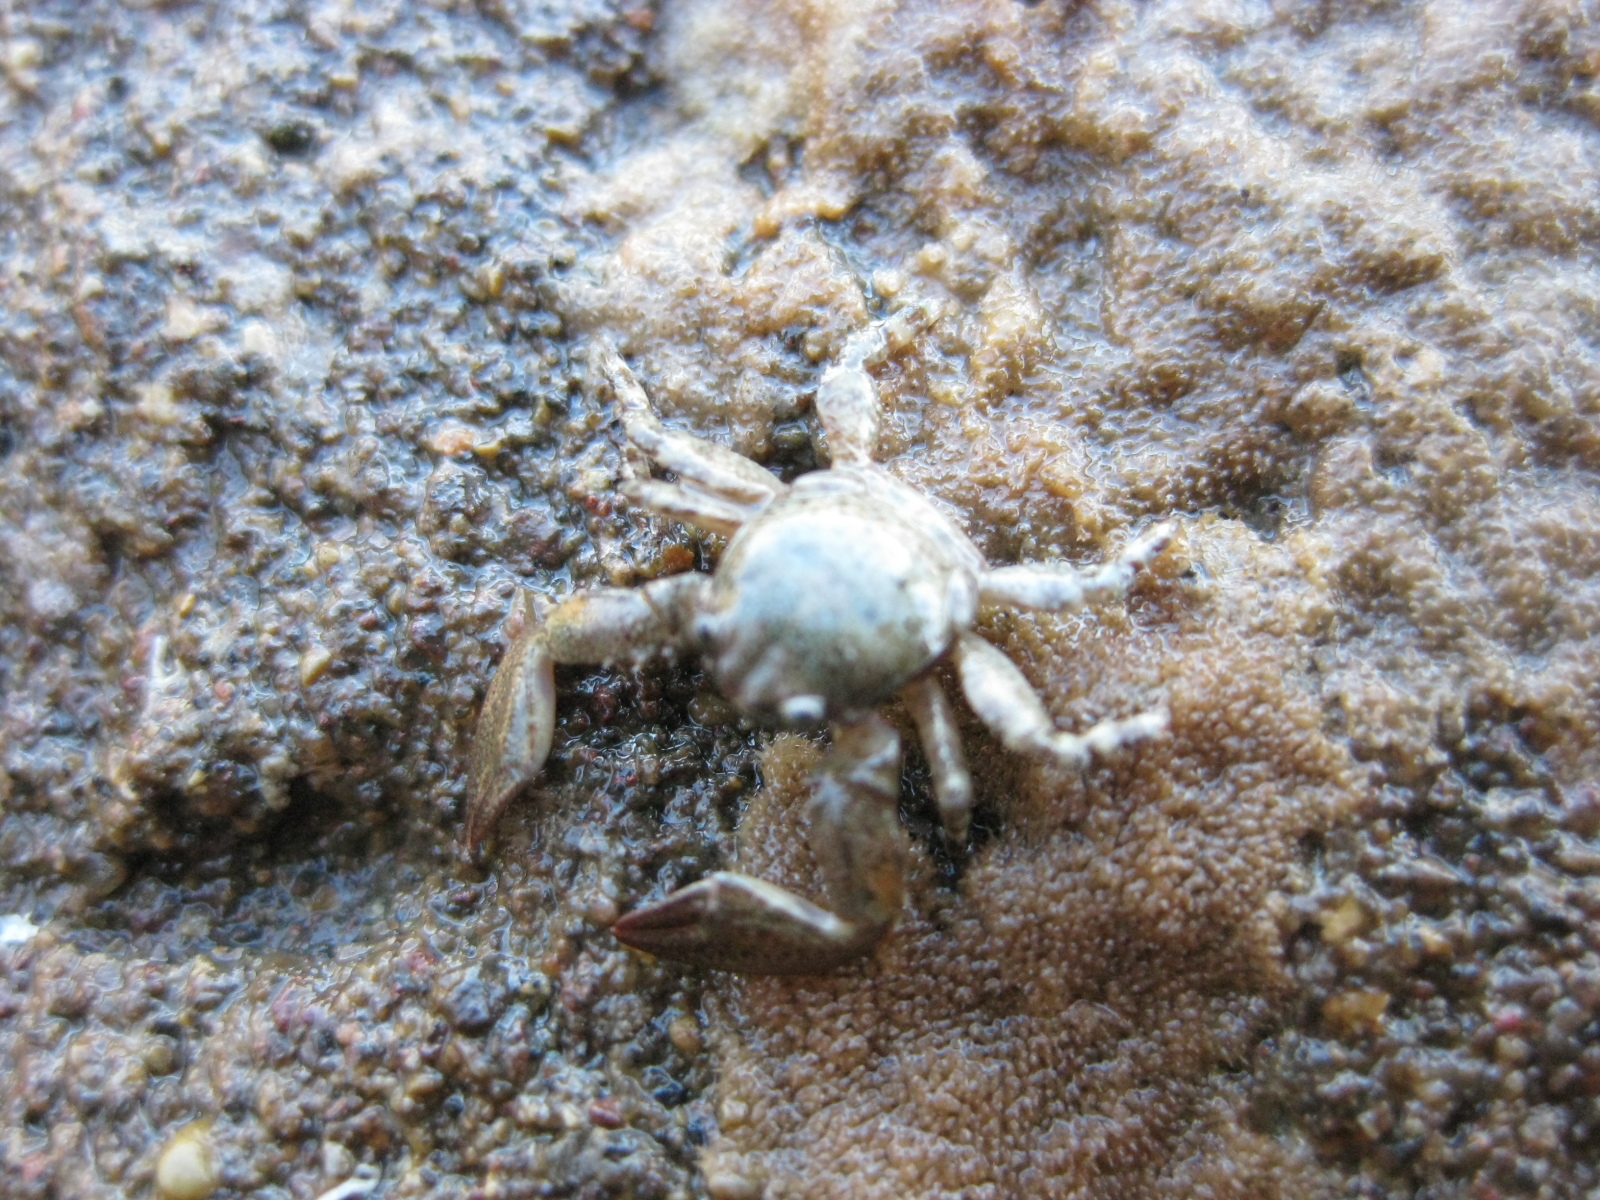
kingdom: Animalia
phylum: Arthropoda
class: Malacostraca
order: Decapoda
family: Porcellanidae
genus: Petrolisthes
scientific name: Petrolisthes novaezelandiae
